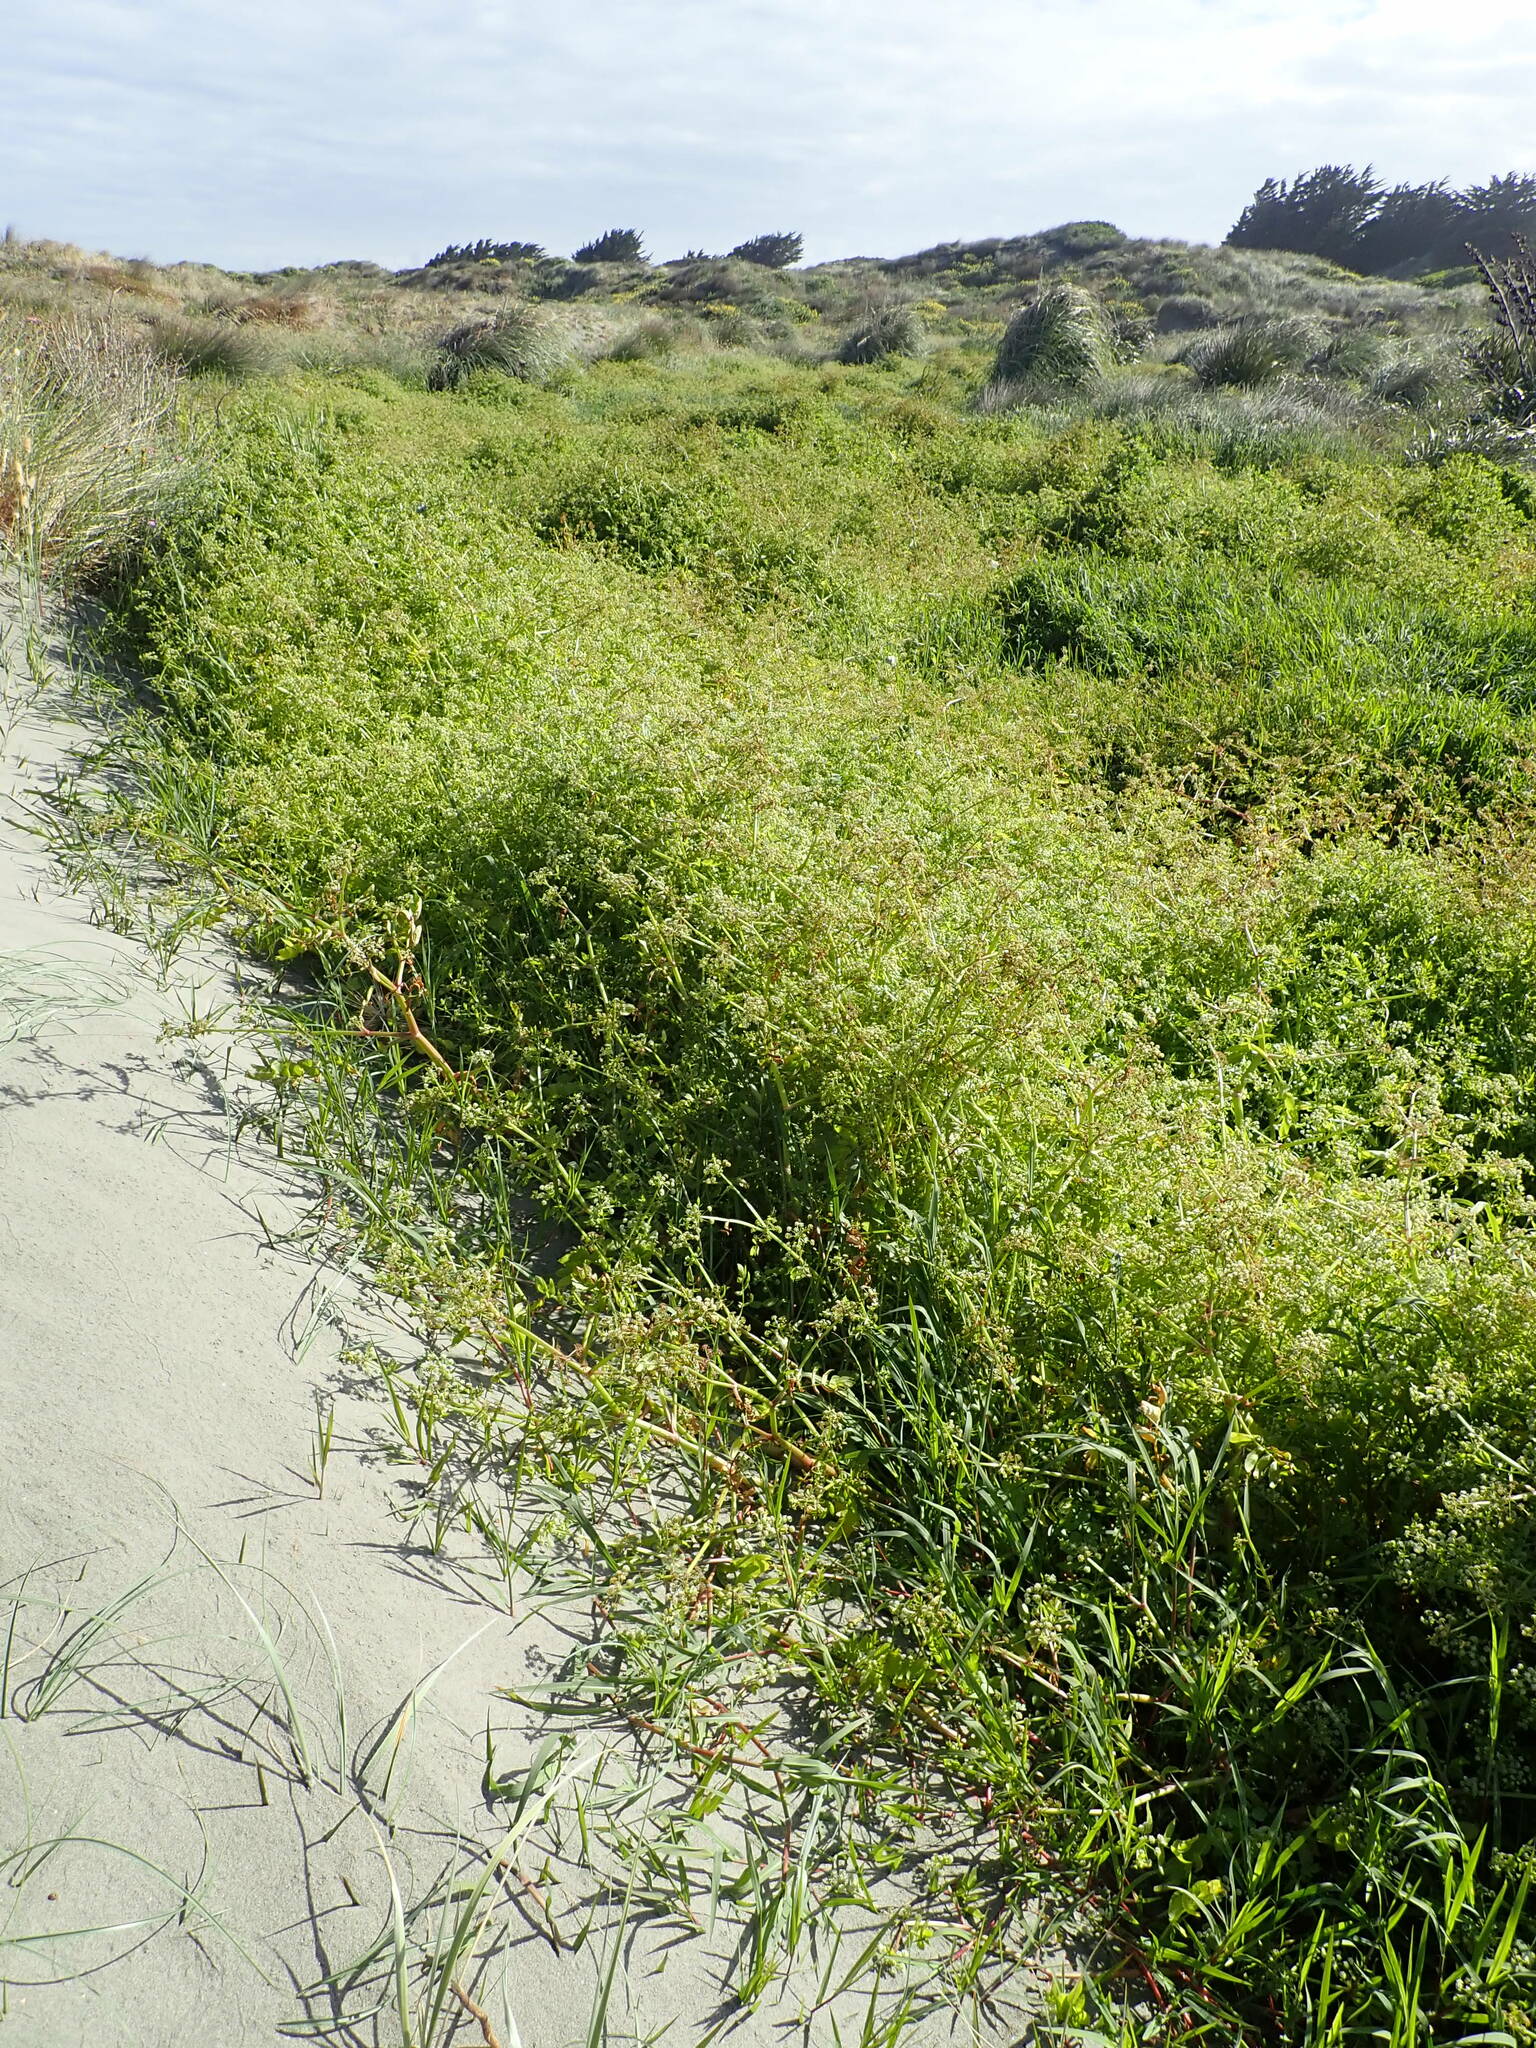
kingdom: Animalia
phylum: Arthropoda
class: Insecta
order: Odonata
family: Coenagrionidae
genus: Xanthocnemis
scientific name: Xanthocnemis zealandica
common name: Common redcoat damselfly
